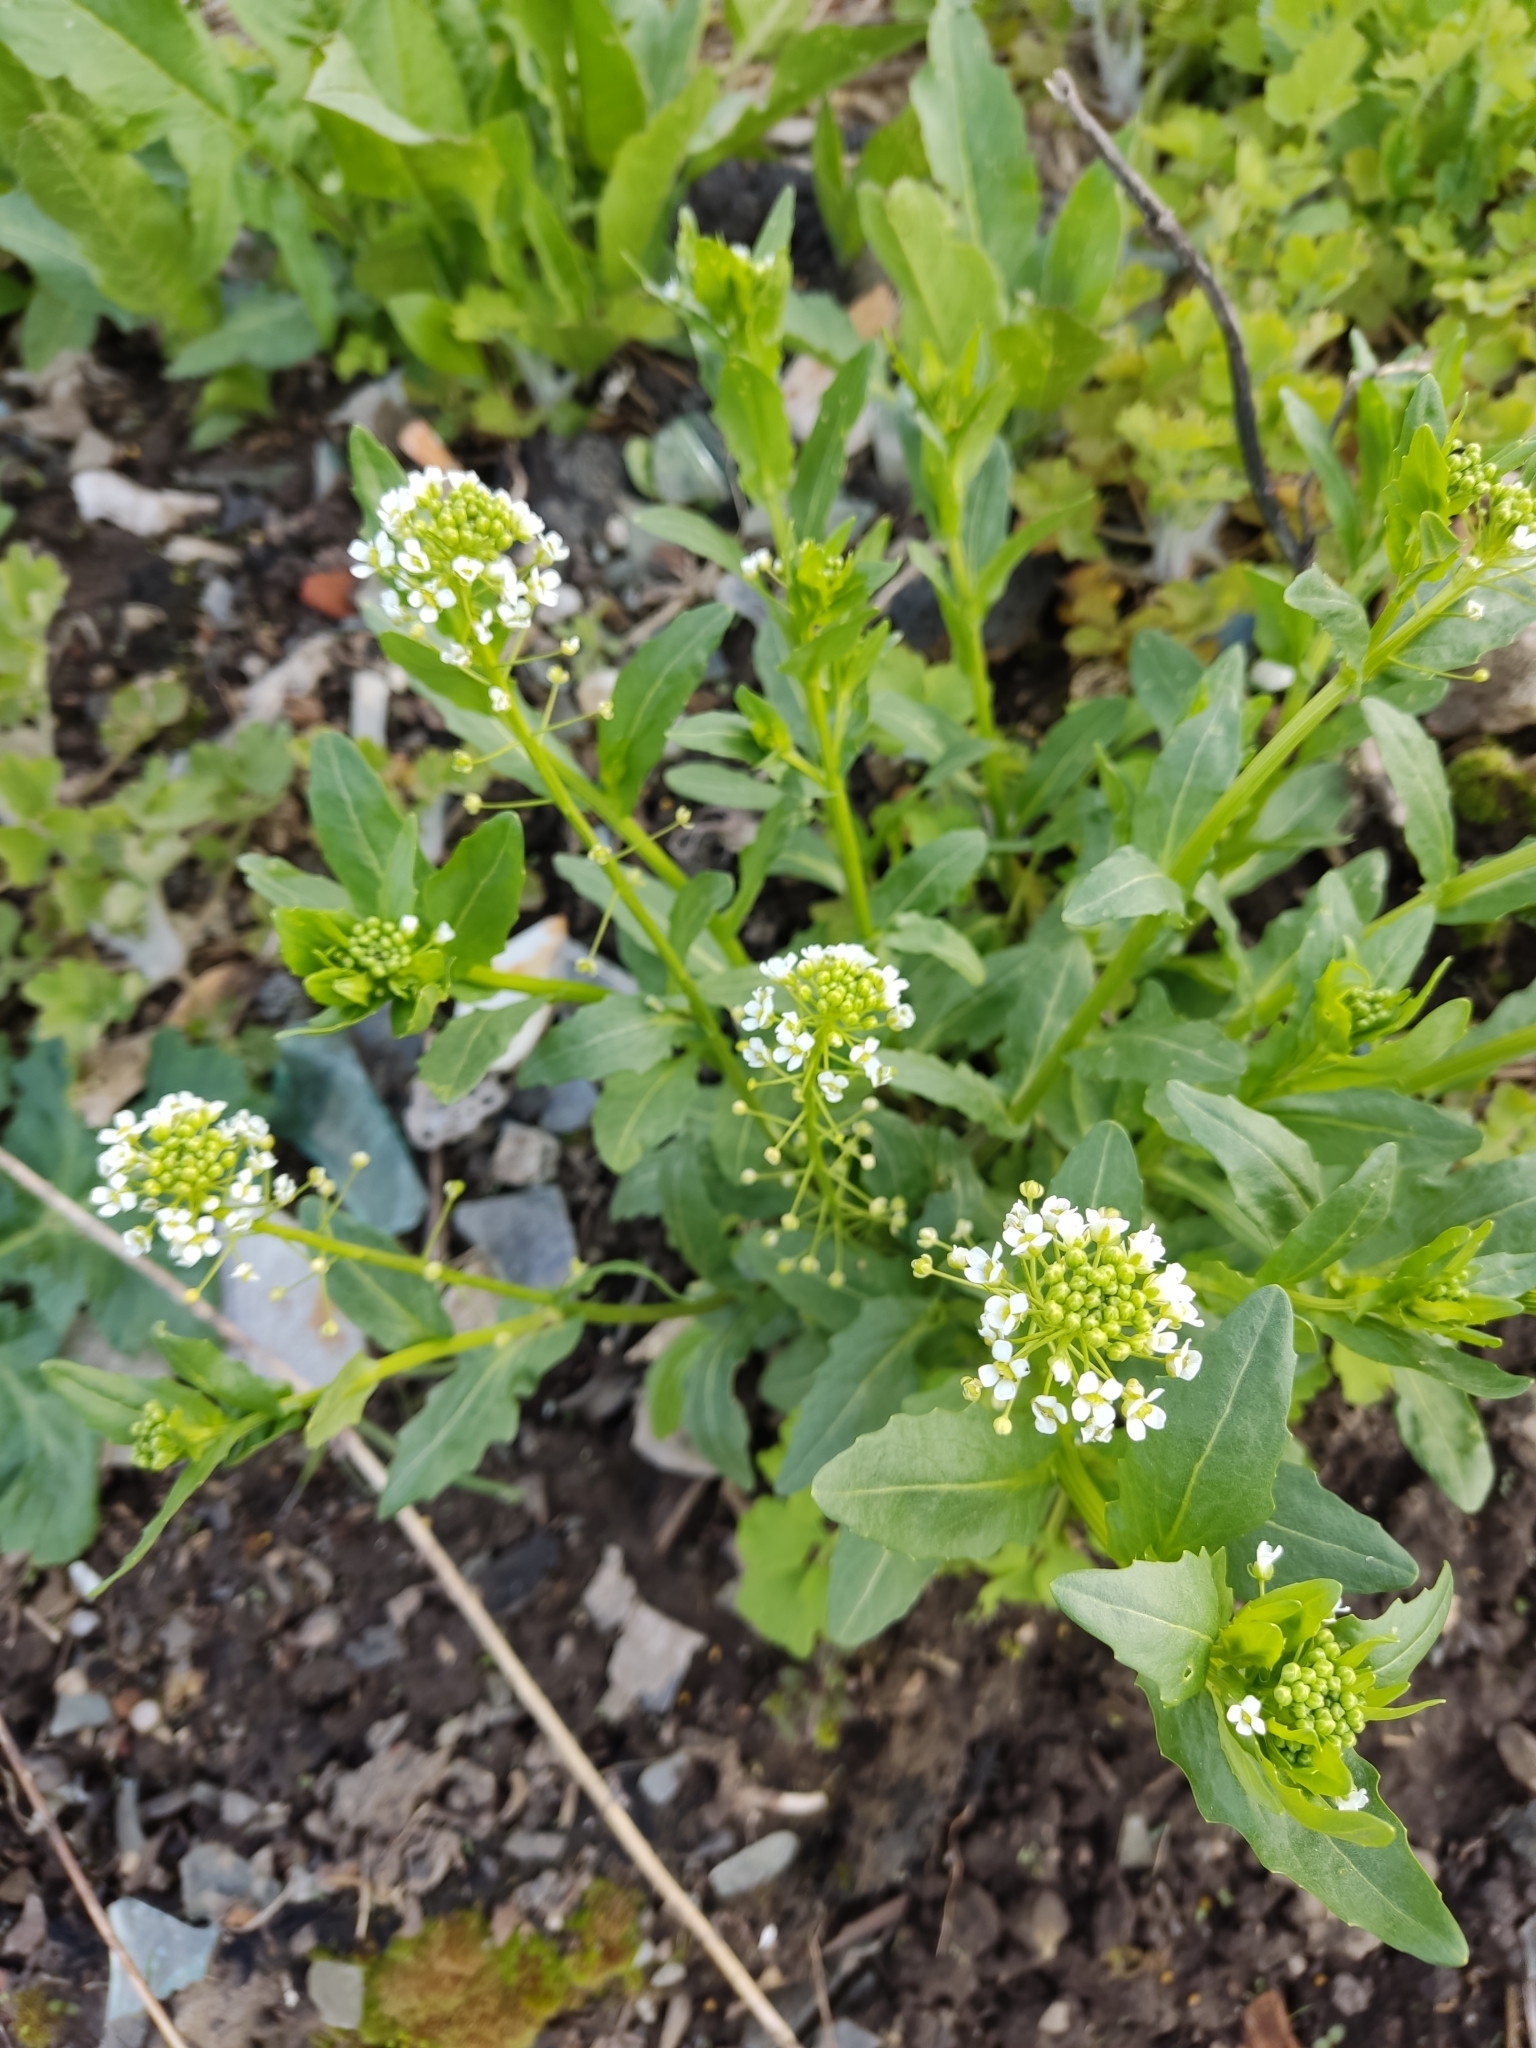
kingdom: Plantae
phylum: Tracheophyta
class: Magnoliopsida
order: Brassicales
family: Brassicaceae
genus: Thlaspi
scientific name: Thlaspi arvense
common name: Field pennycress
